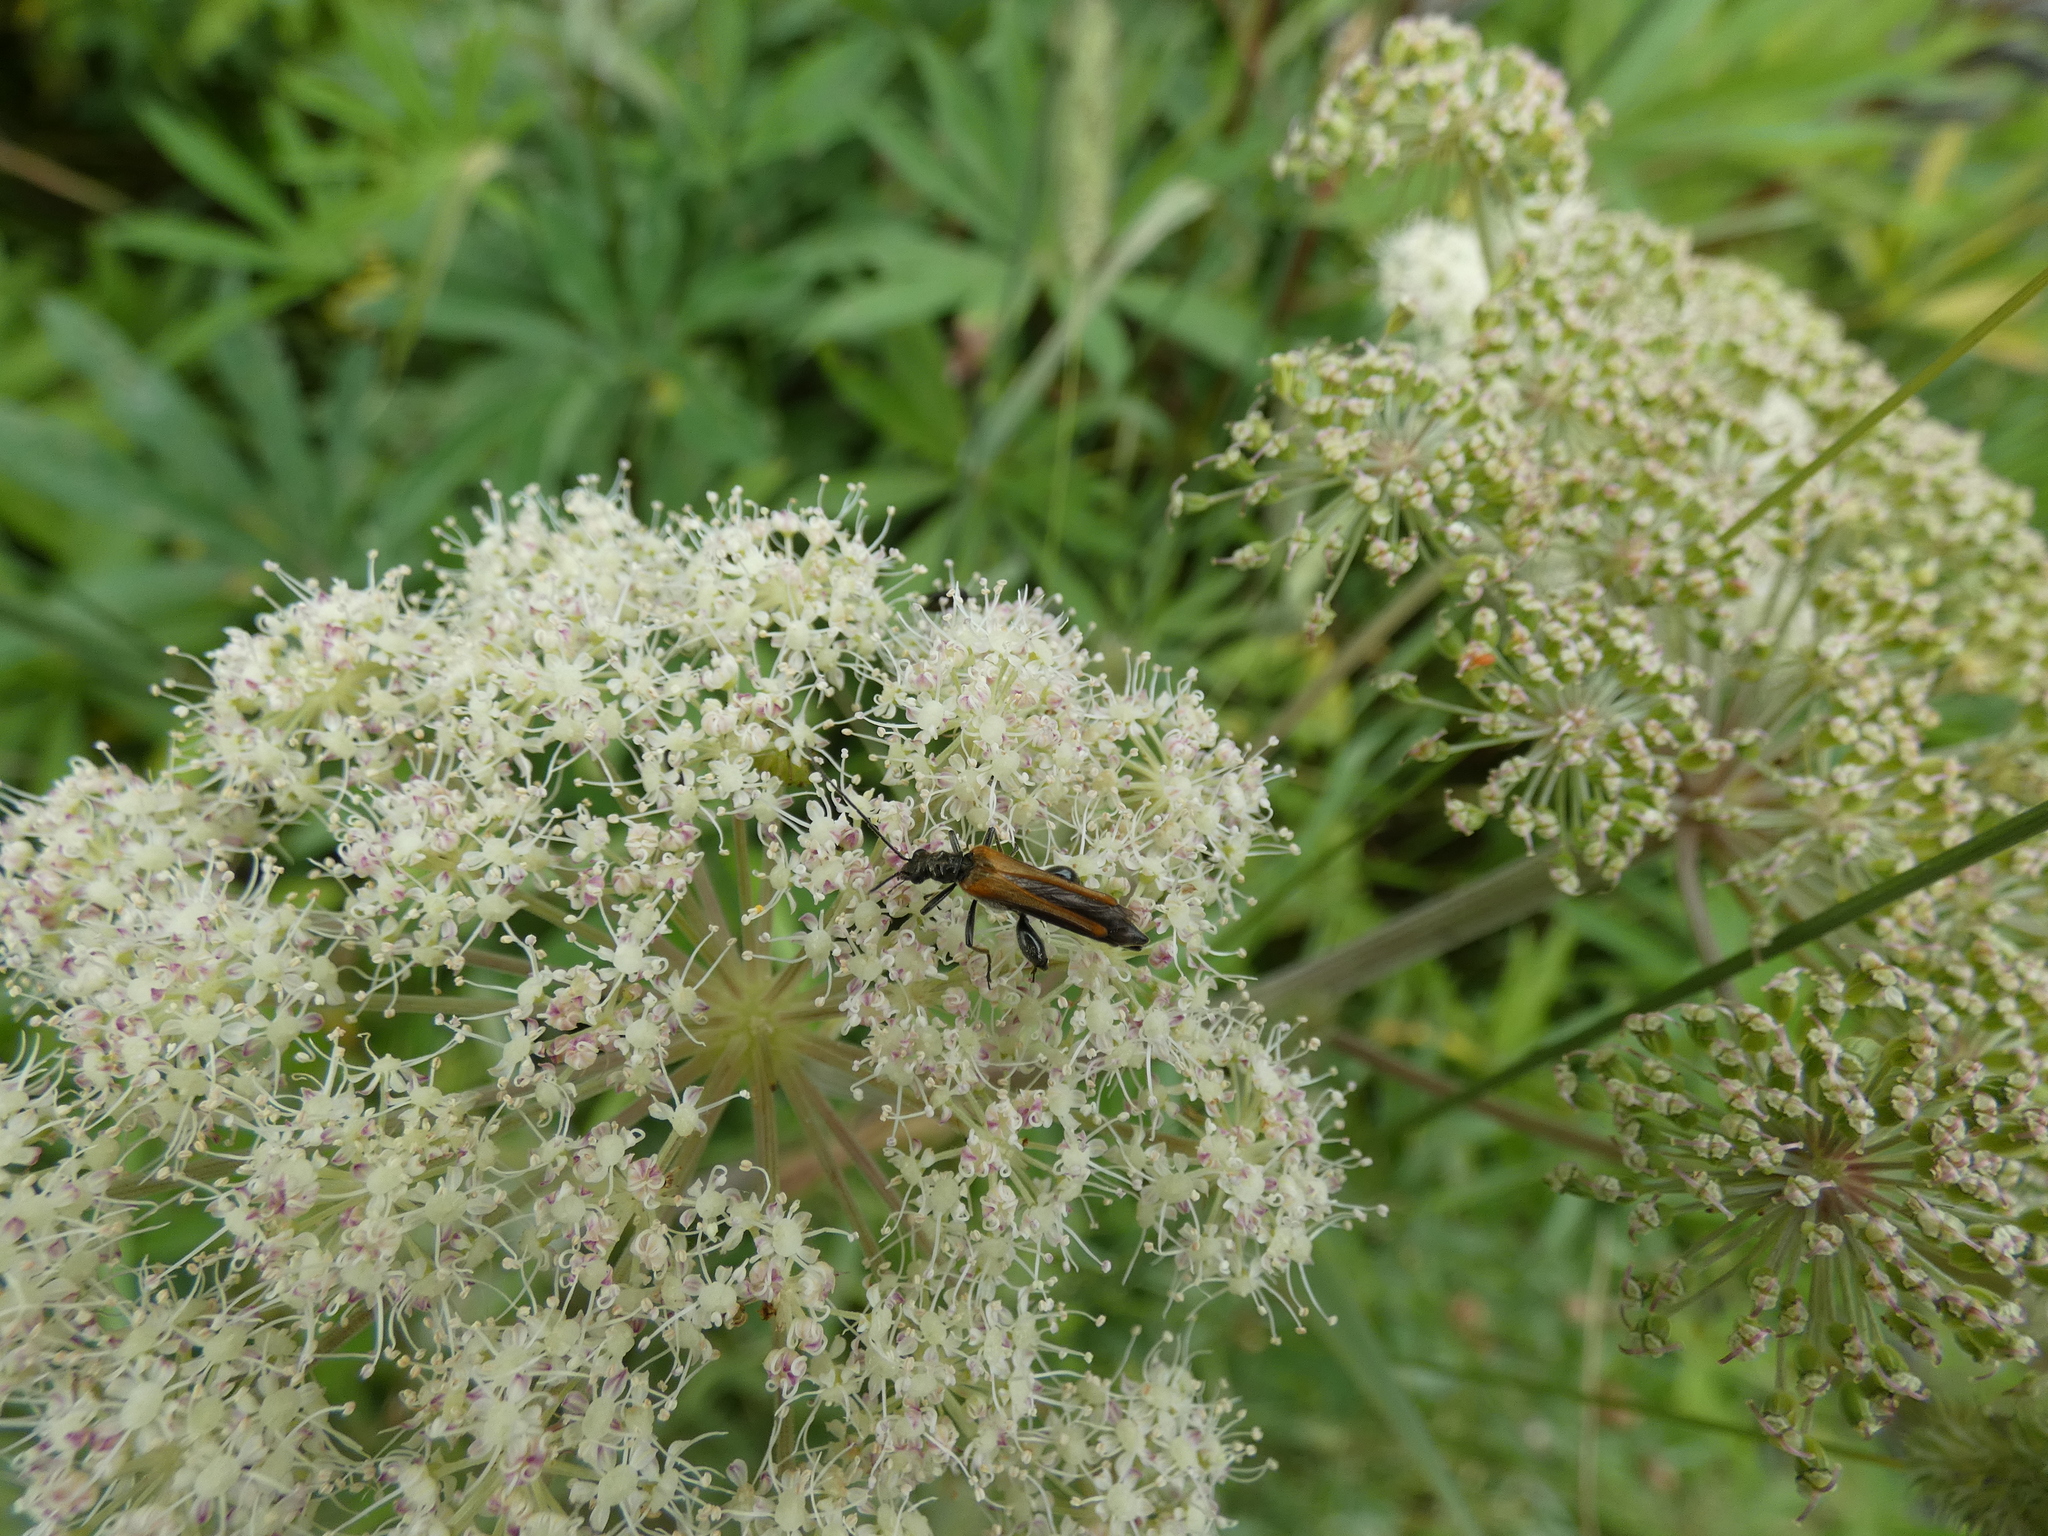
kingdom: Animalia
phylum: Arthropoda
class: Insecta
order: Coleoptera
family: Oedemeridae
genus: Oedemera
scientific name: Oedemera femorata
